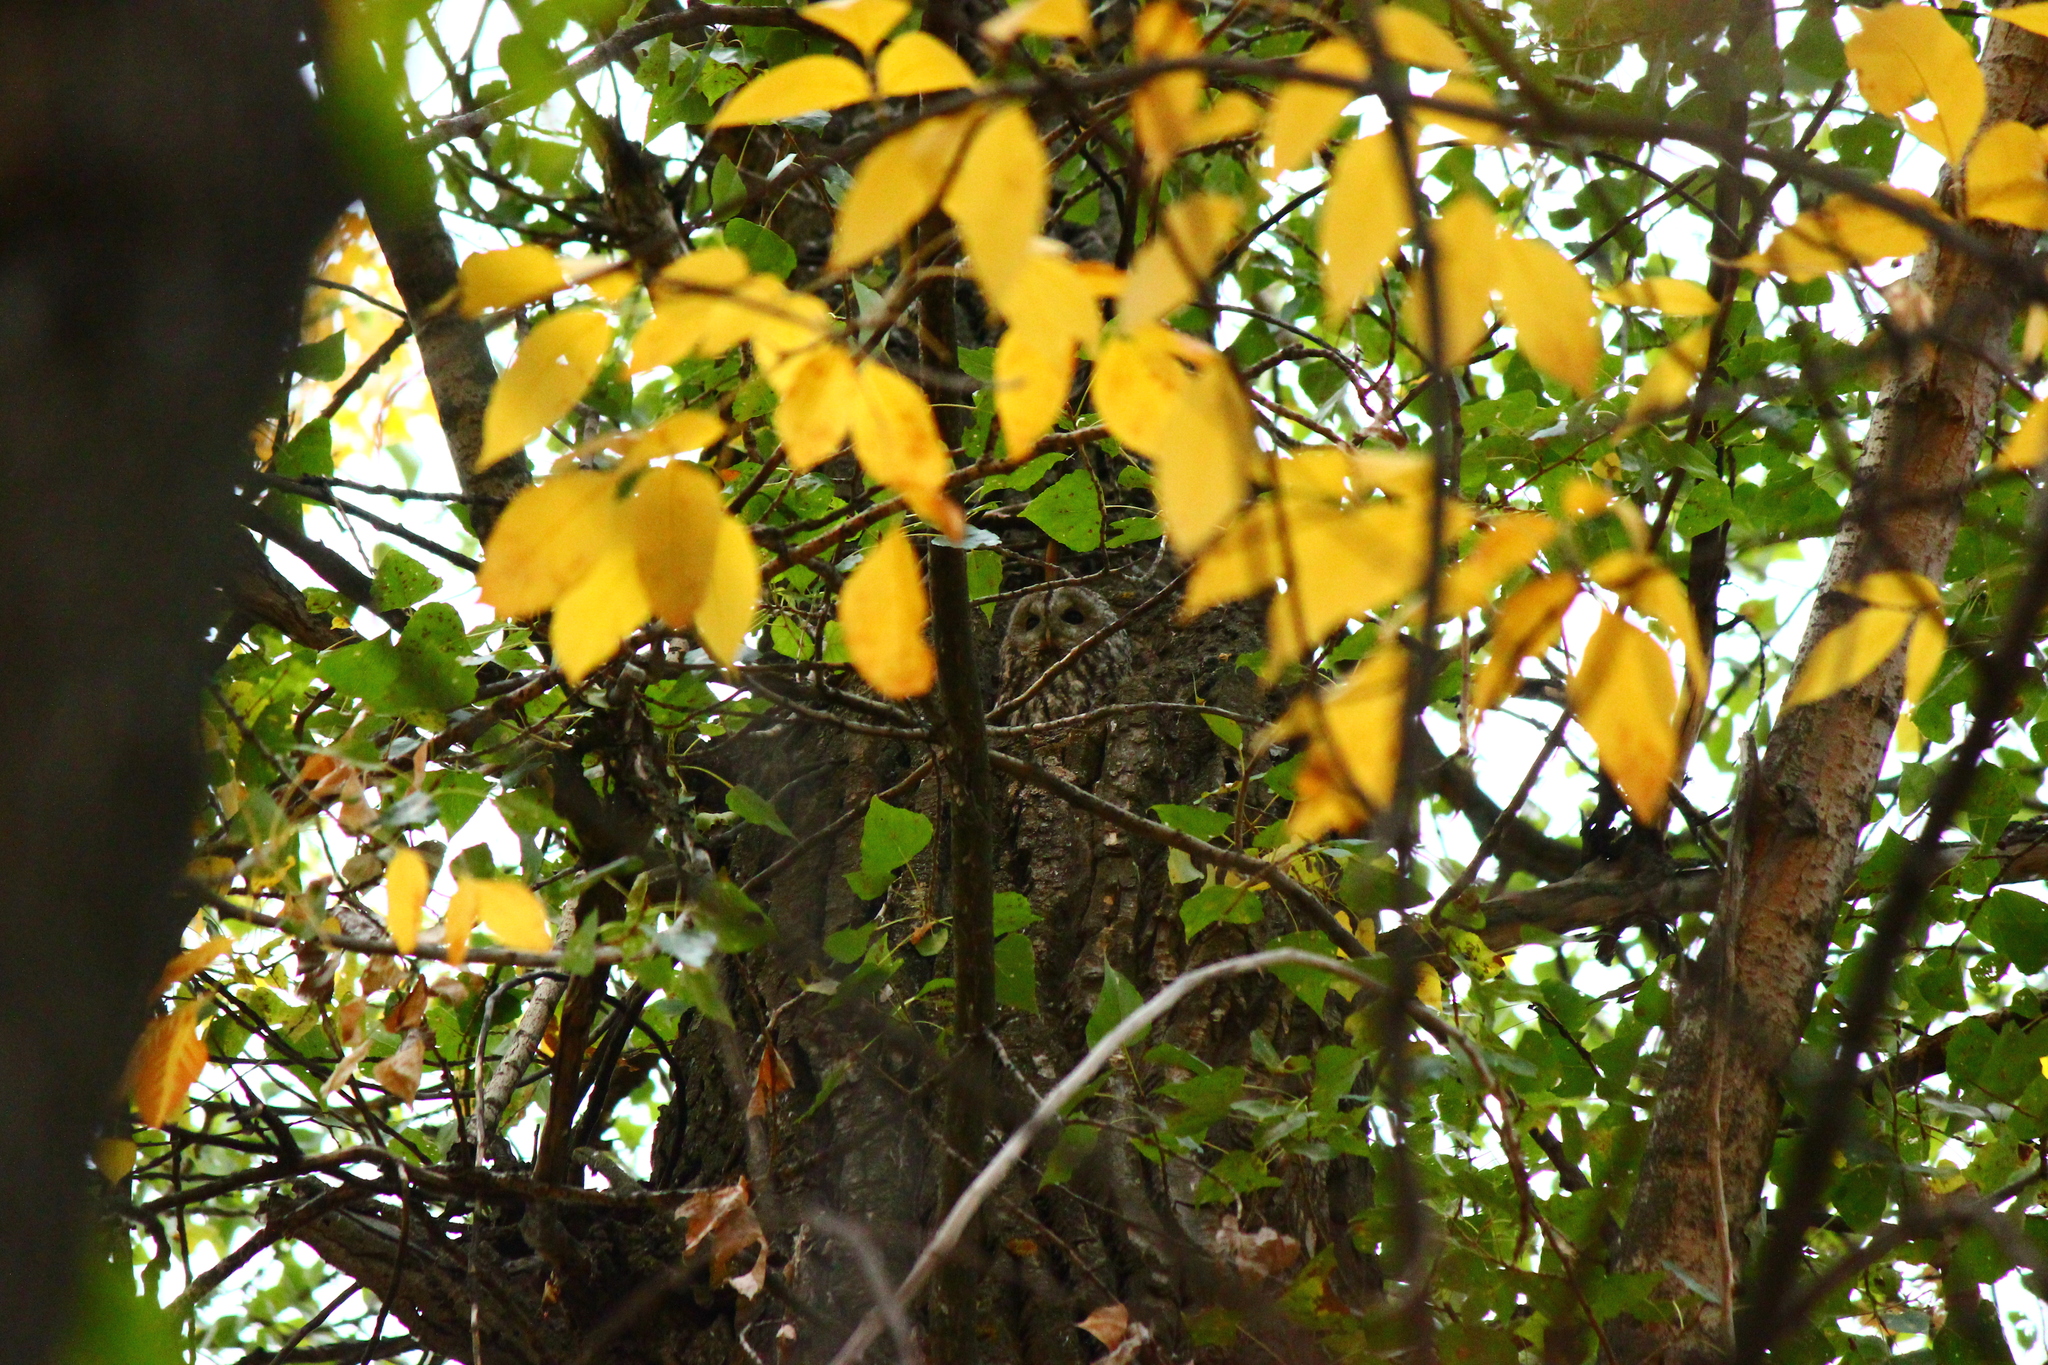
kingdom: Animalia
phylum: Chordata
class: Aves
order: Strigiformes
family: Strigidae
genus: Strix
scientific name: Strix aluco
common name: Tawny owl
